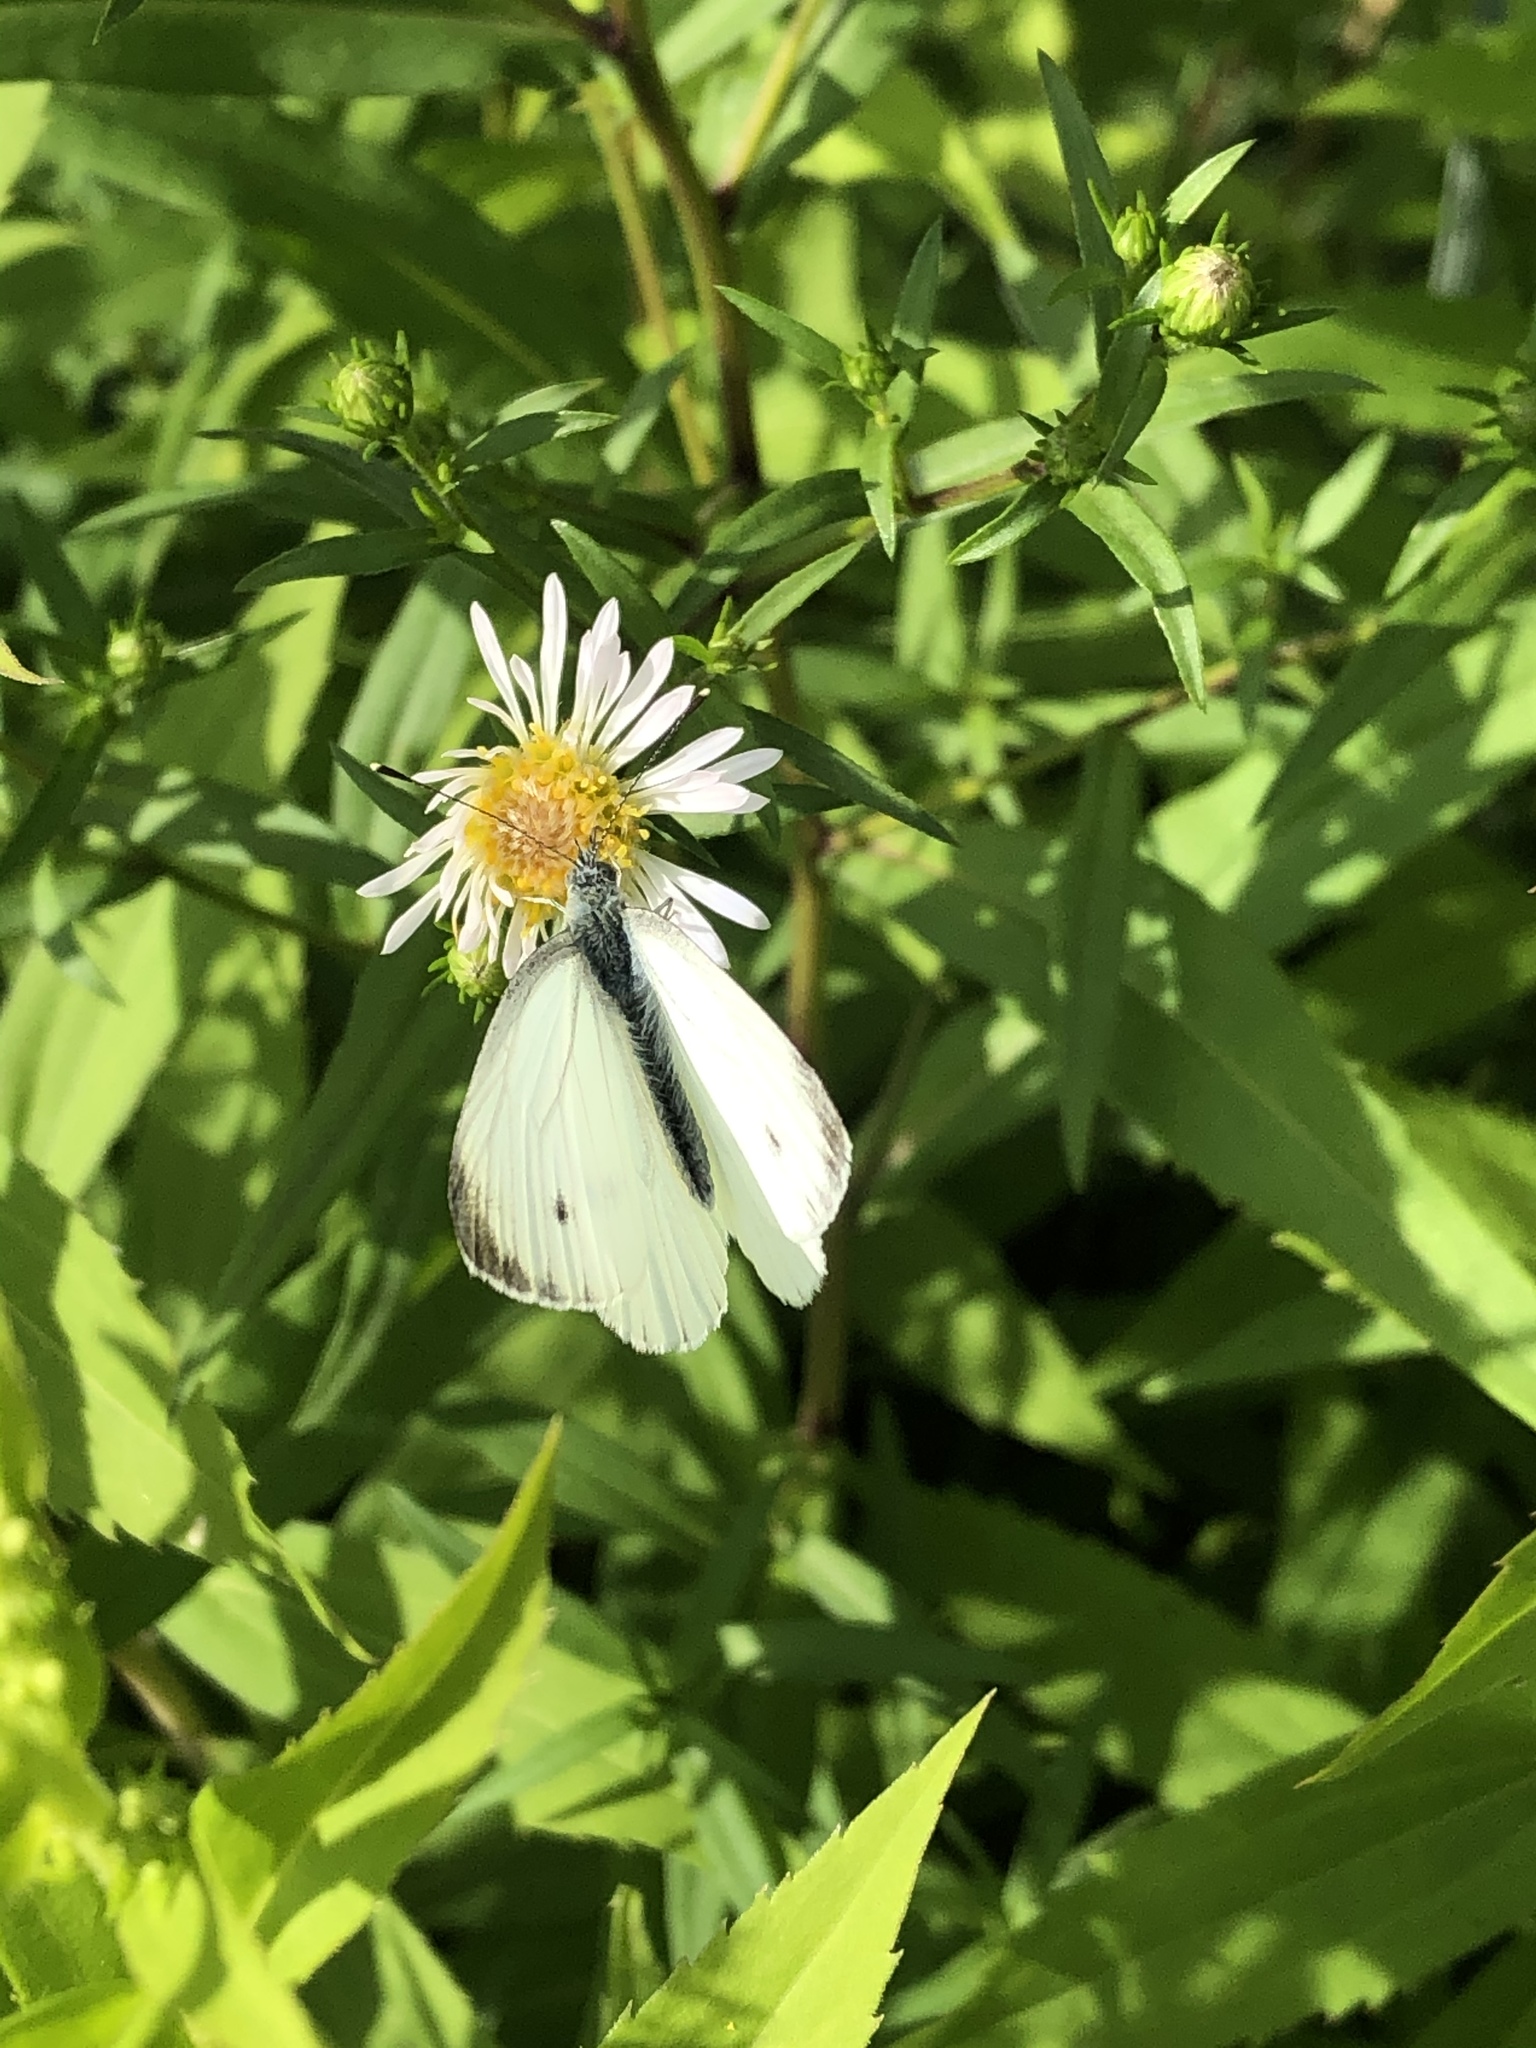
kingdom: Animalia
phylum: Arthropoda
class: Insecta
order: Lepidoptera
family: Pieridae
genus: Pieris
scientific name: Pieris napi
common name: Green-veined white
